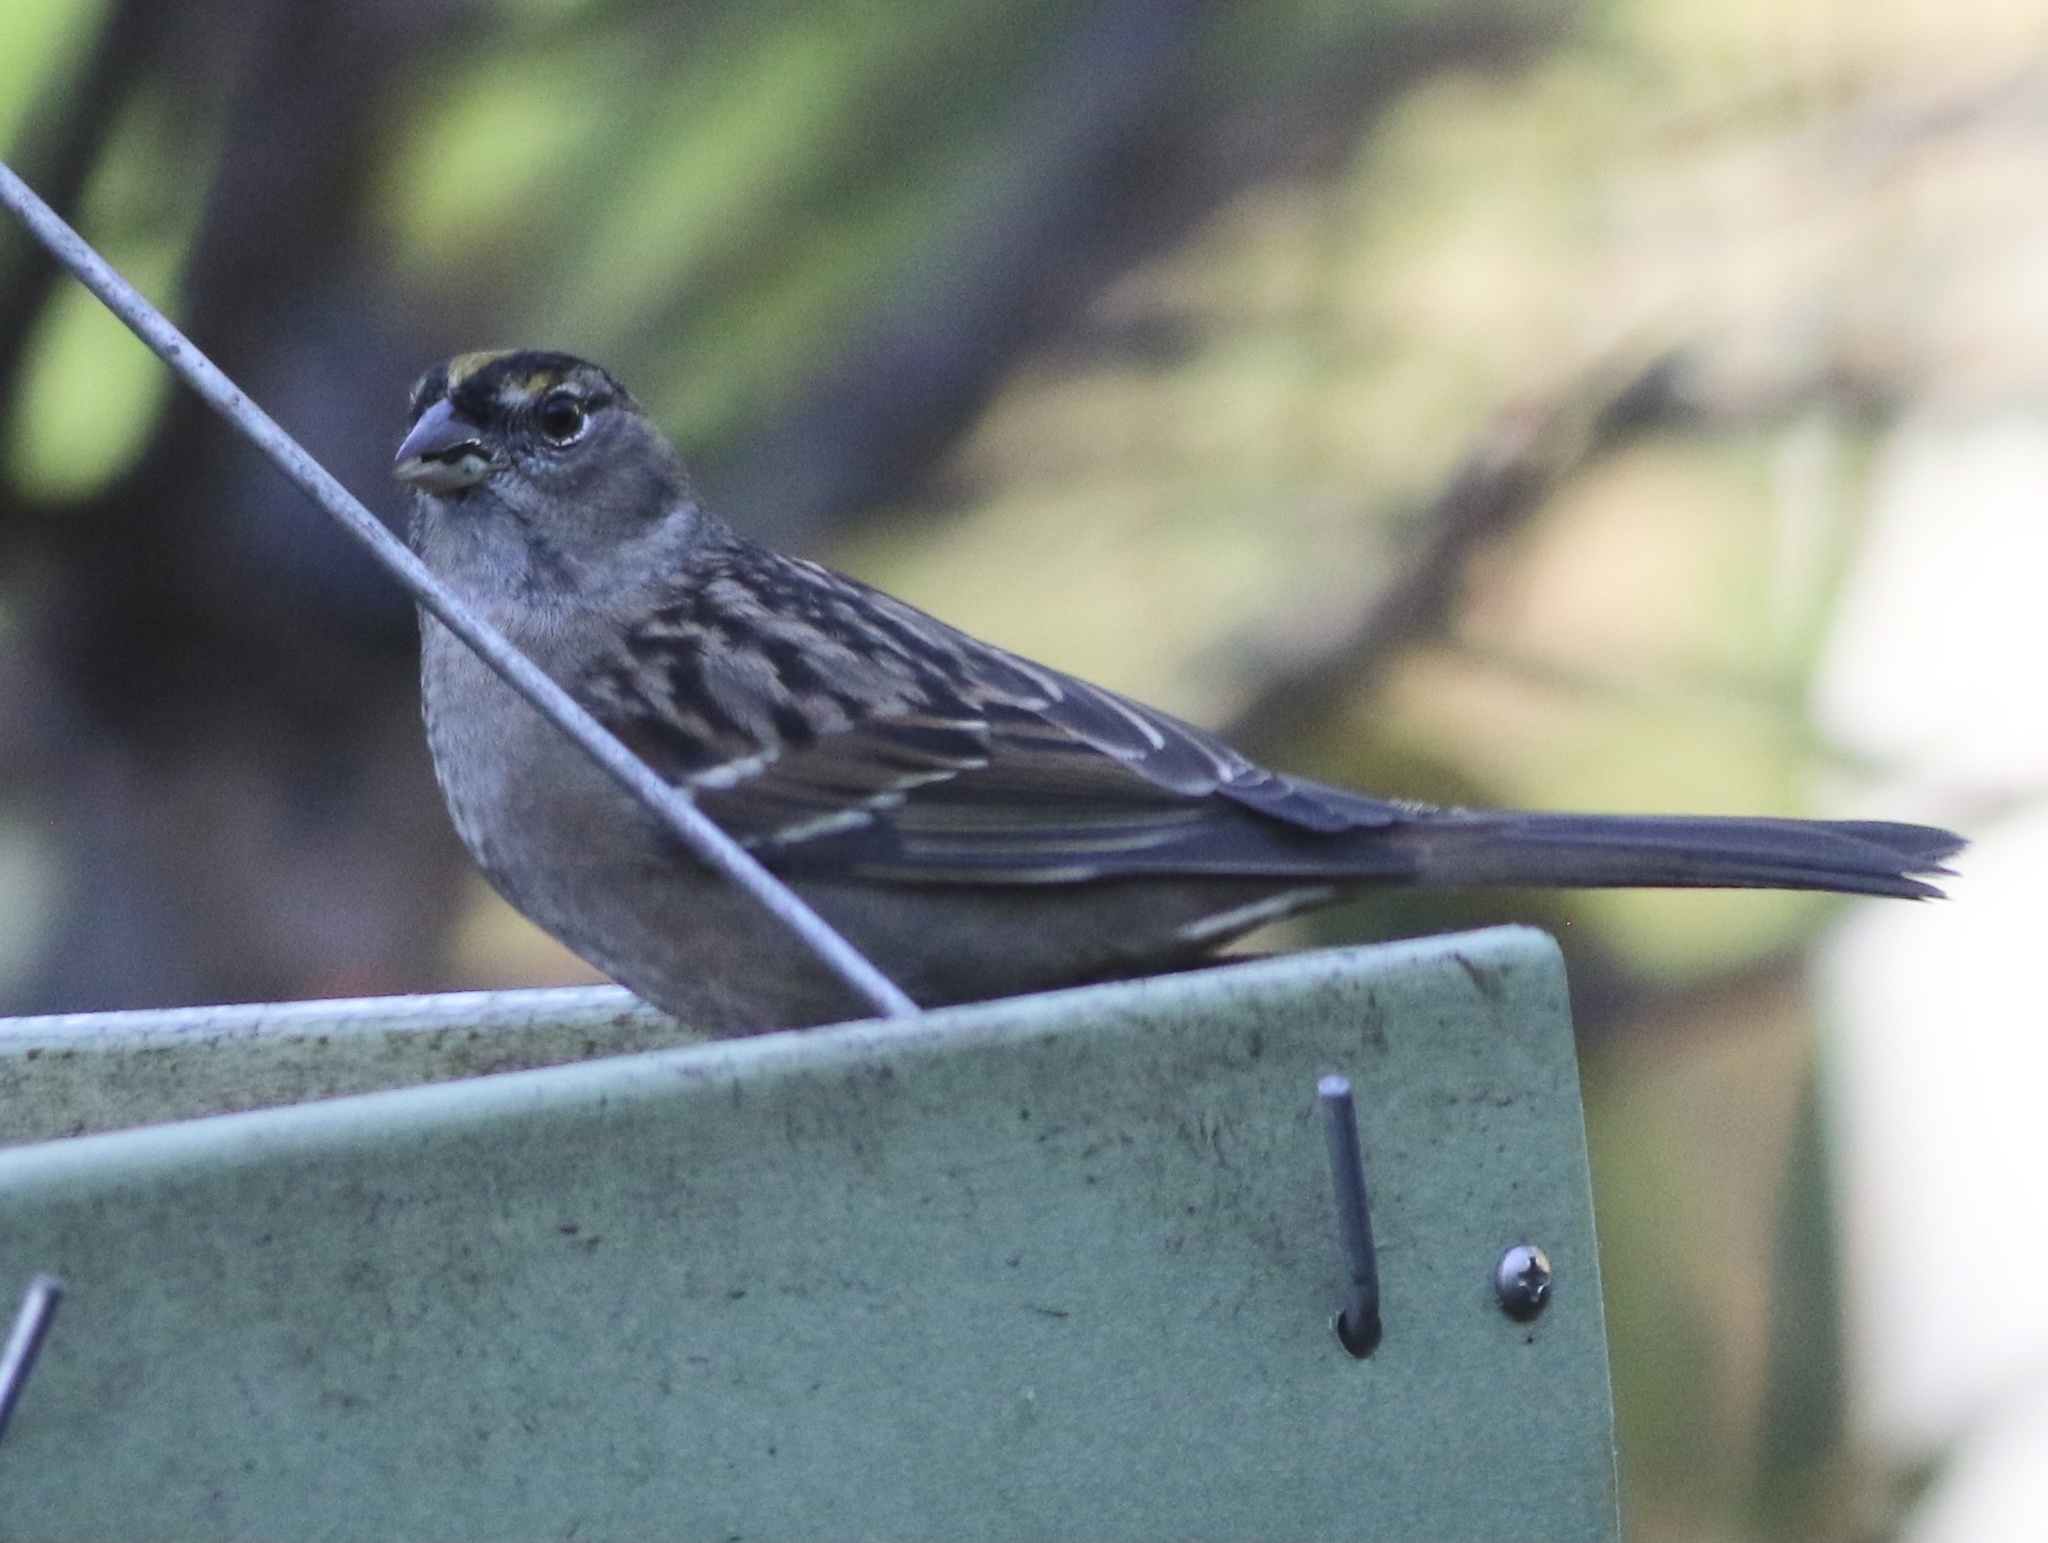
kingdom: Animalia
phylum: Chordata
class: Aves
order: Passeriformes
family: Passerellidae
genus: Zonotrichia
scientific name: Zonotrichia atricapilla
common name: Golden-crowned sparrow
